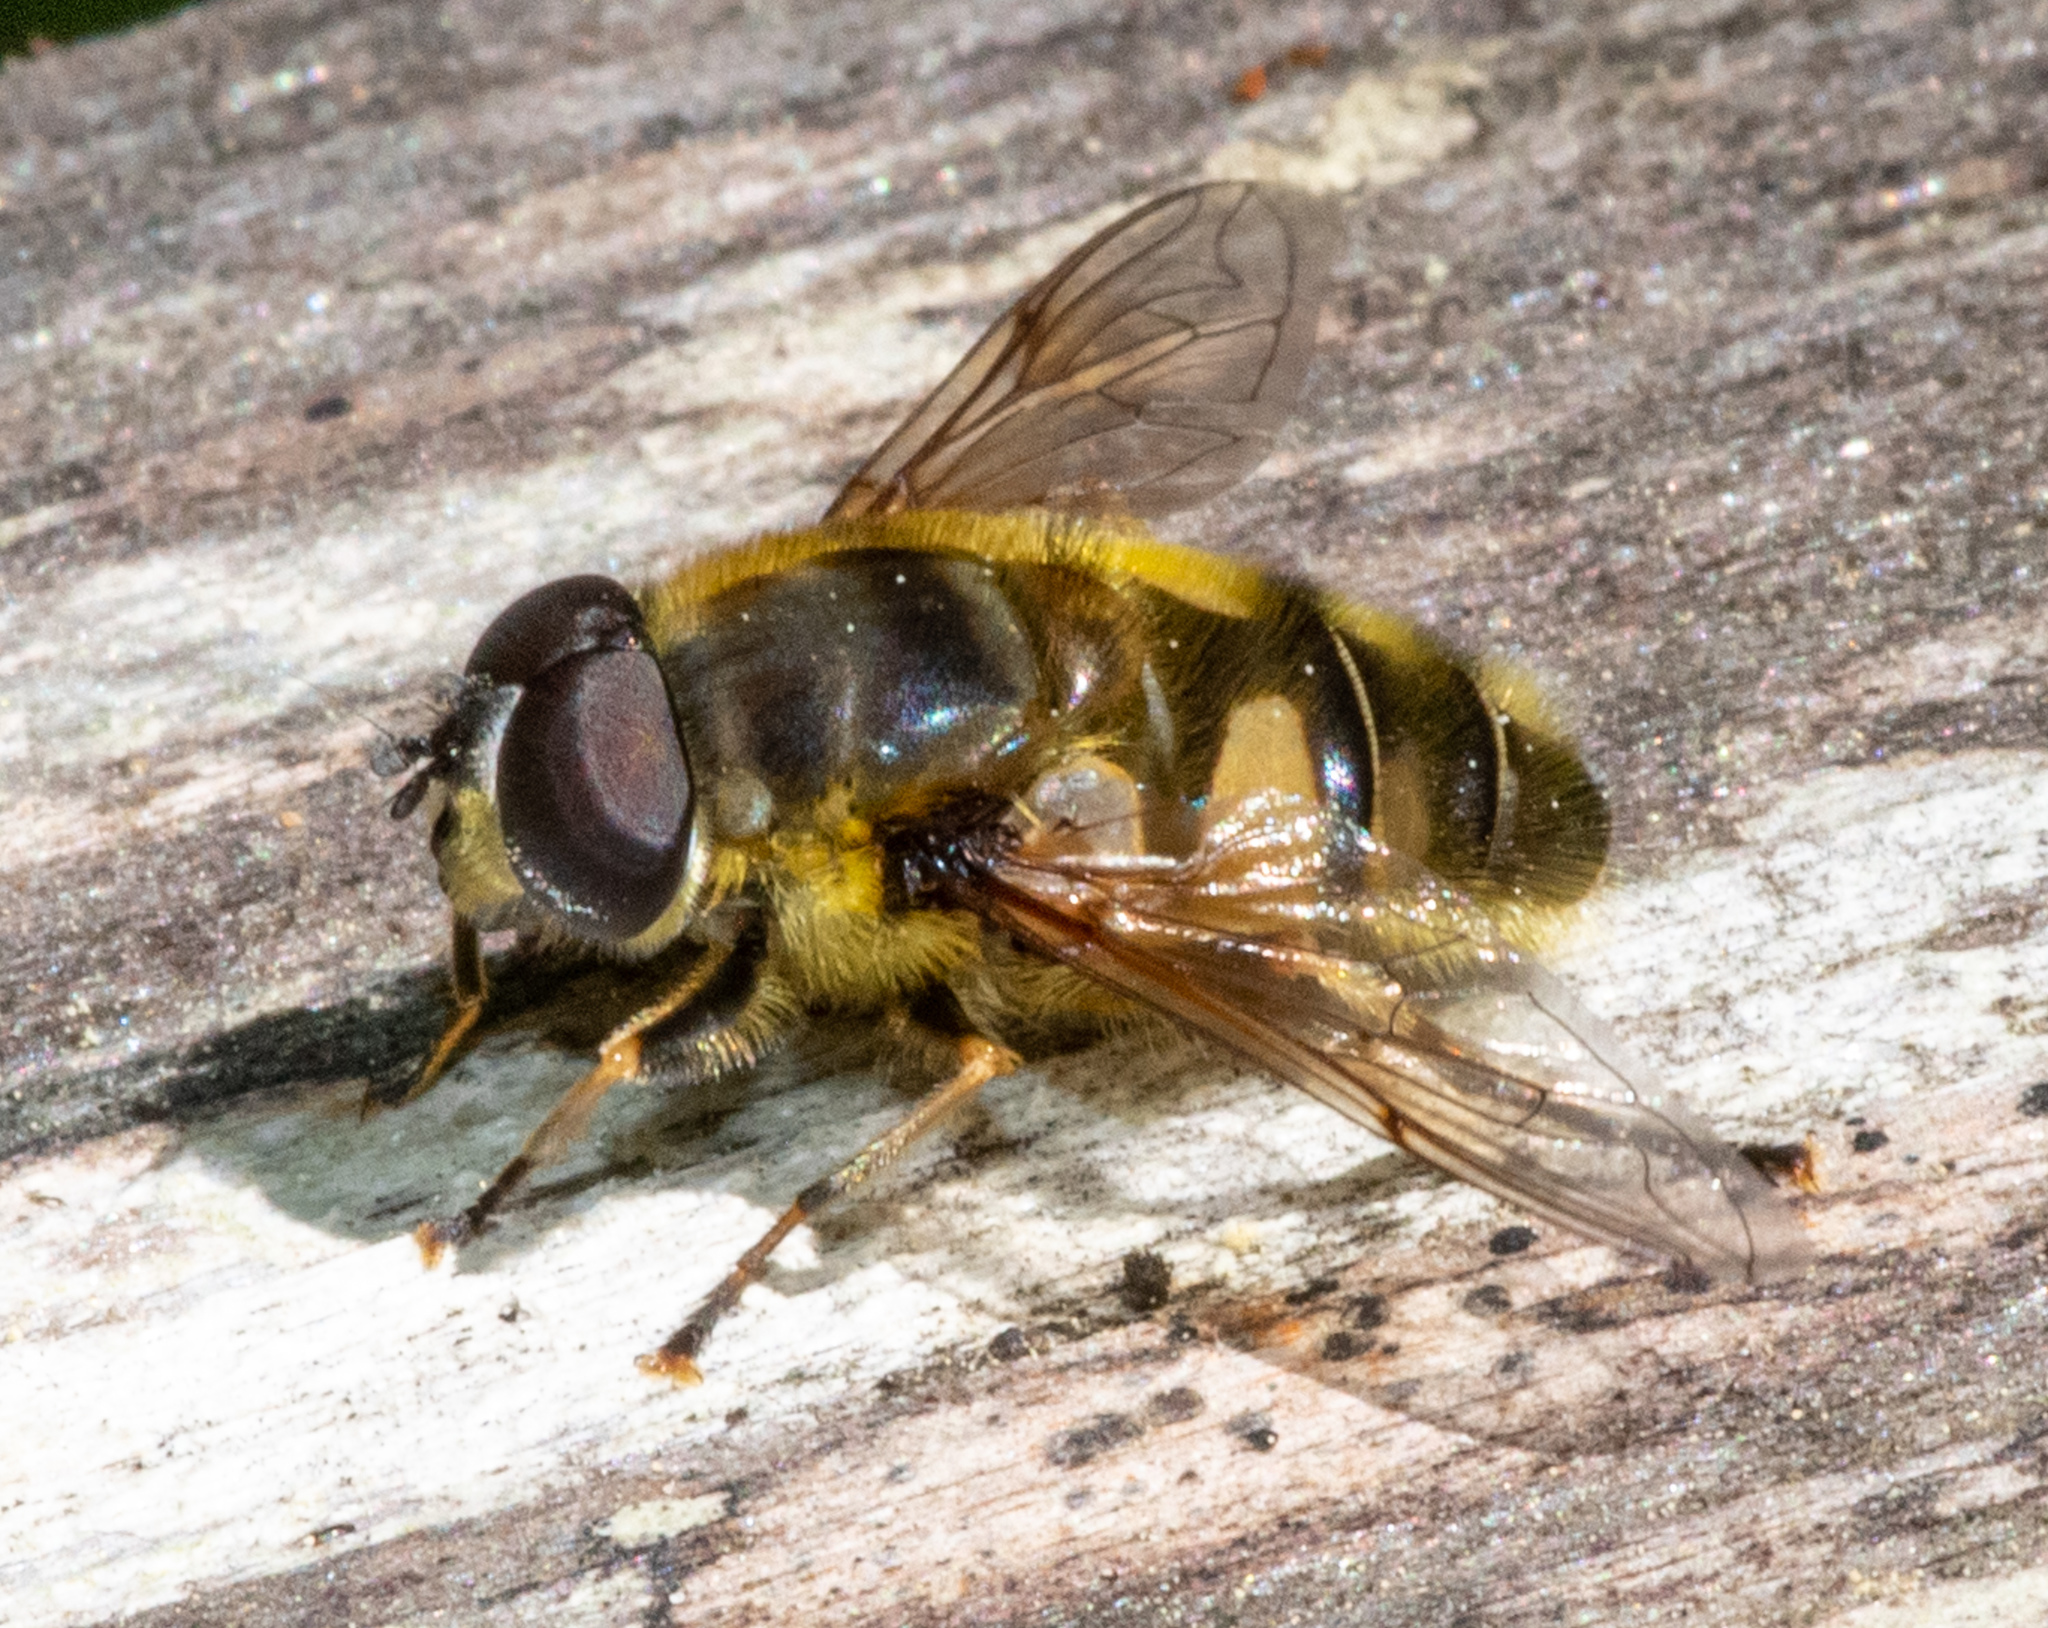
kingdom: Animalia
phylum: Arthropoda
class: Insecta
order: Diptera
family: Syrphidae
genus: Myathropa
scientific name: Myathropa florea
